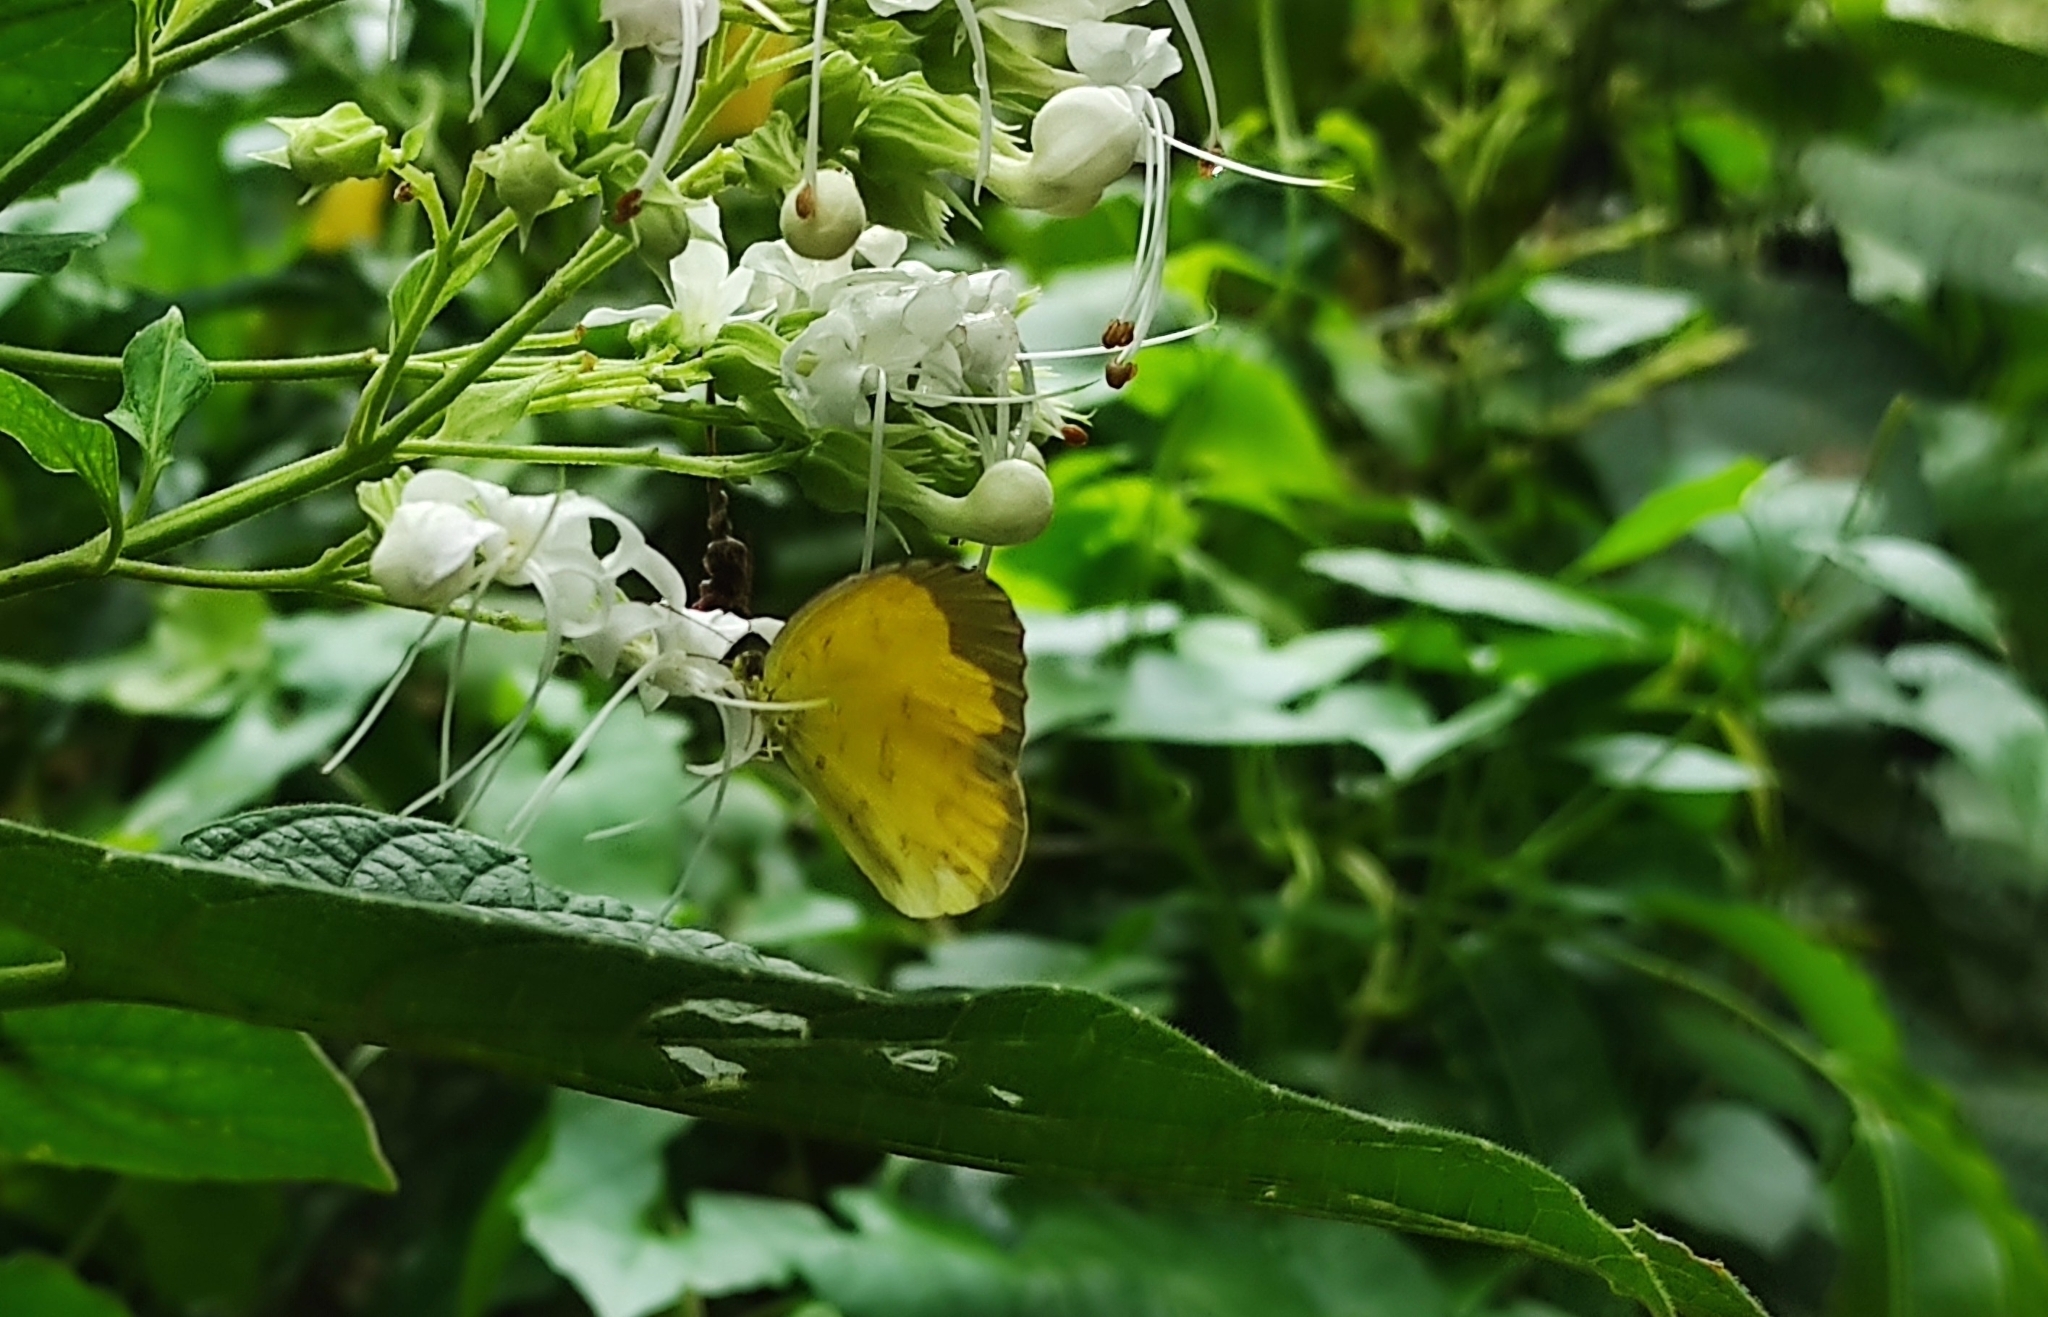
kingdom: Animalia
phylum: Arthropoda
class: Insecta
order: Lepidoptera
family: Pieridae
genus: Eurema
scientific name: Eurema blanda
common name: Three-spot grass yellow
